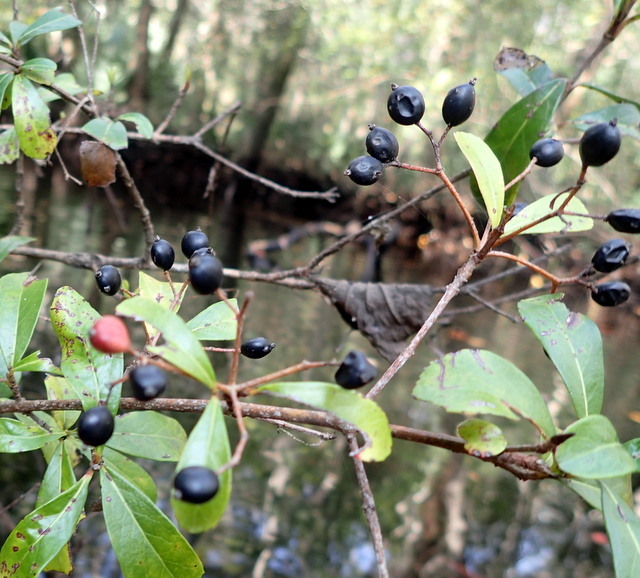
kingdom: Plantae
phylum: Tracheophyta
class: Magnoliopsida
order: Dipsacales
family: Viburnaceae
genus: Viburnum
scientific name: Viburnum obovatum
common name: Walter's viburnum
